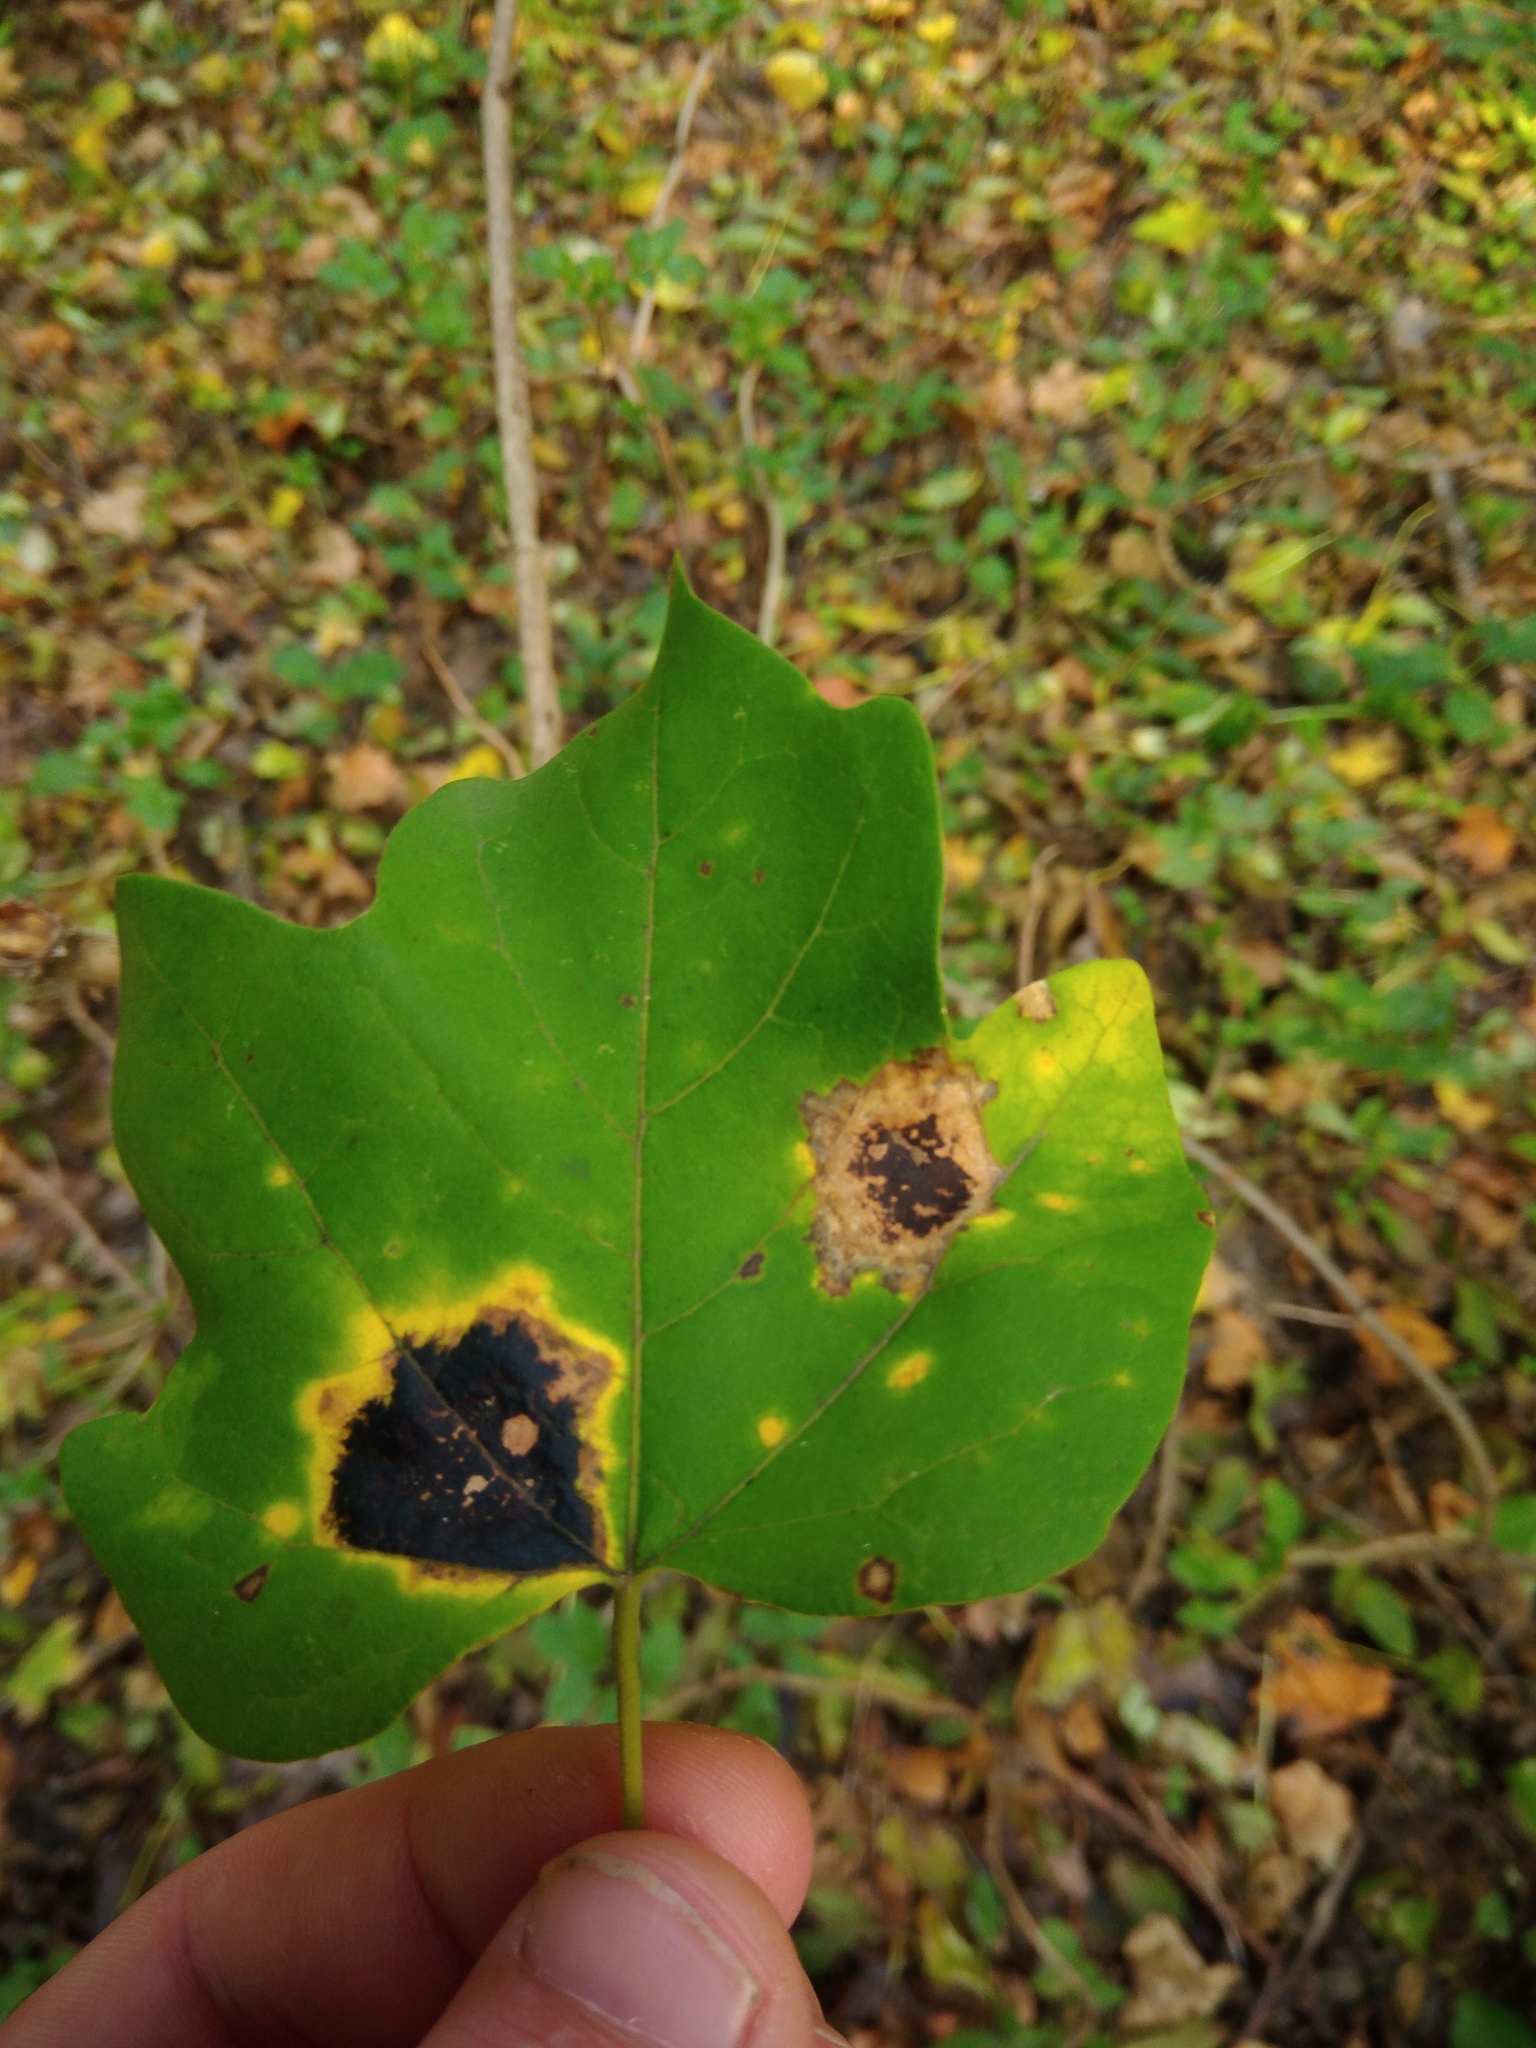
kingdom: Fungi
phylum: Ascomycota
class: Leotiomycetes
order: Rhytismatales
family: Rhytismataceae
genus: Rhytisma
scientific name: Rhytisma acerinum
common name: European tar spot
